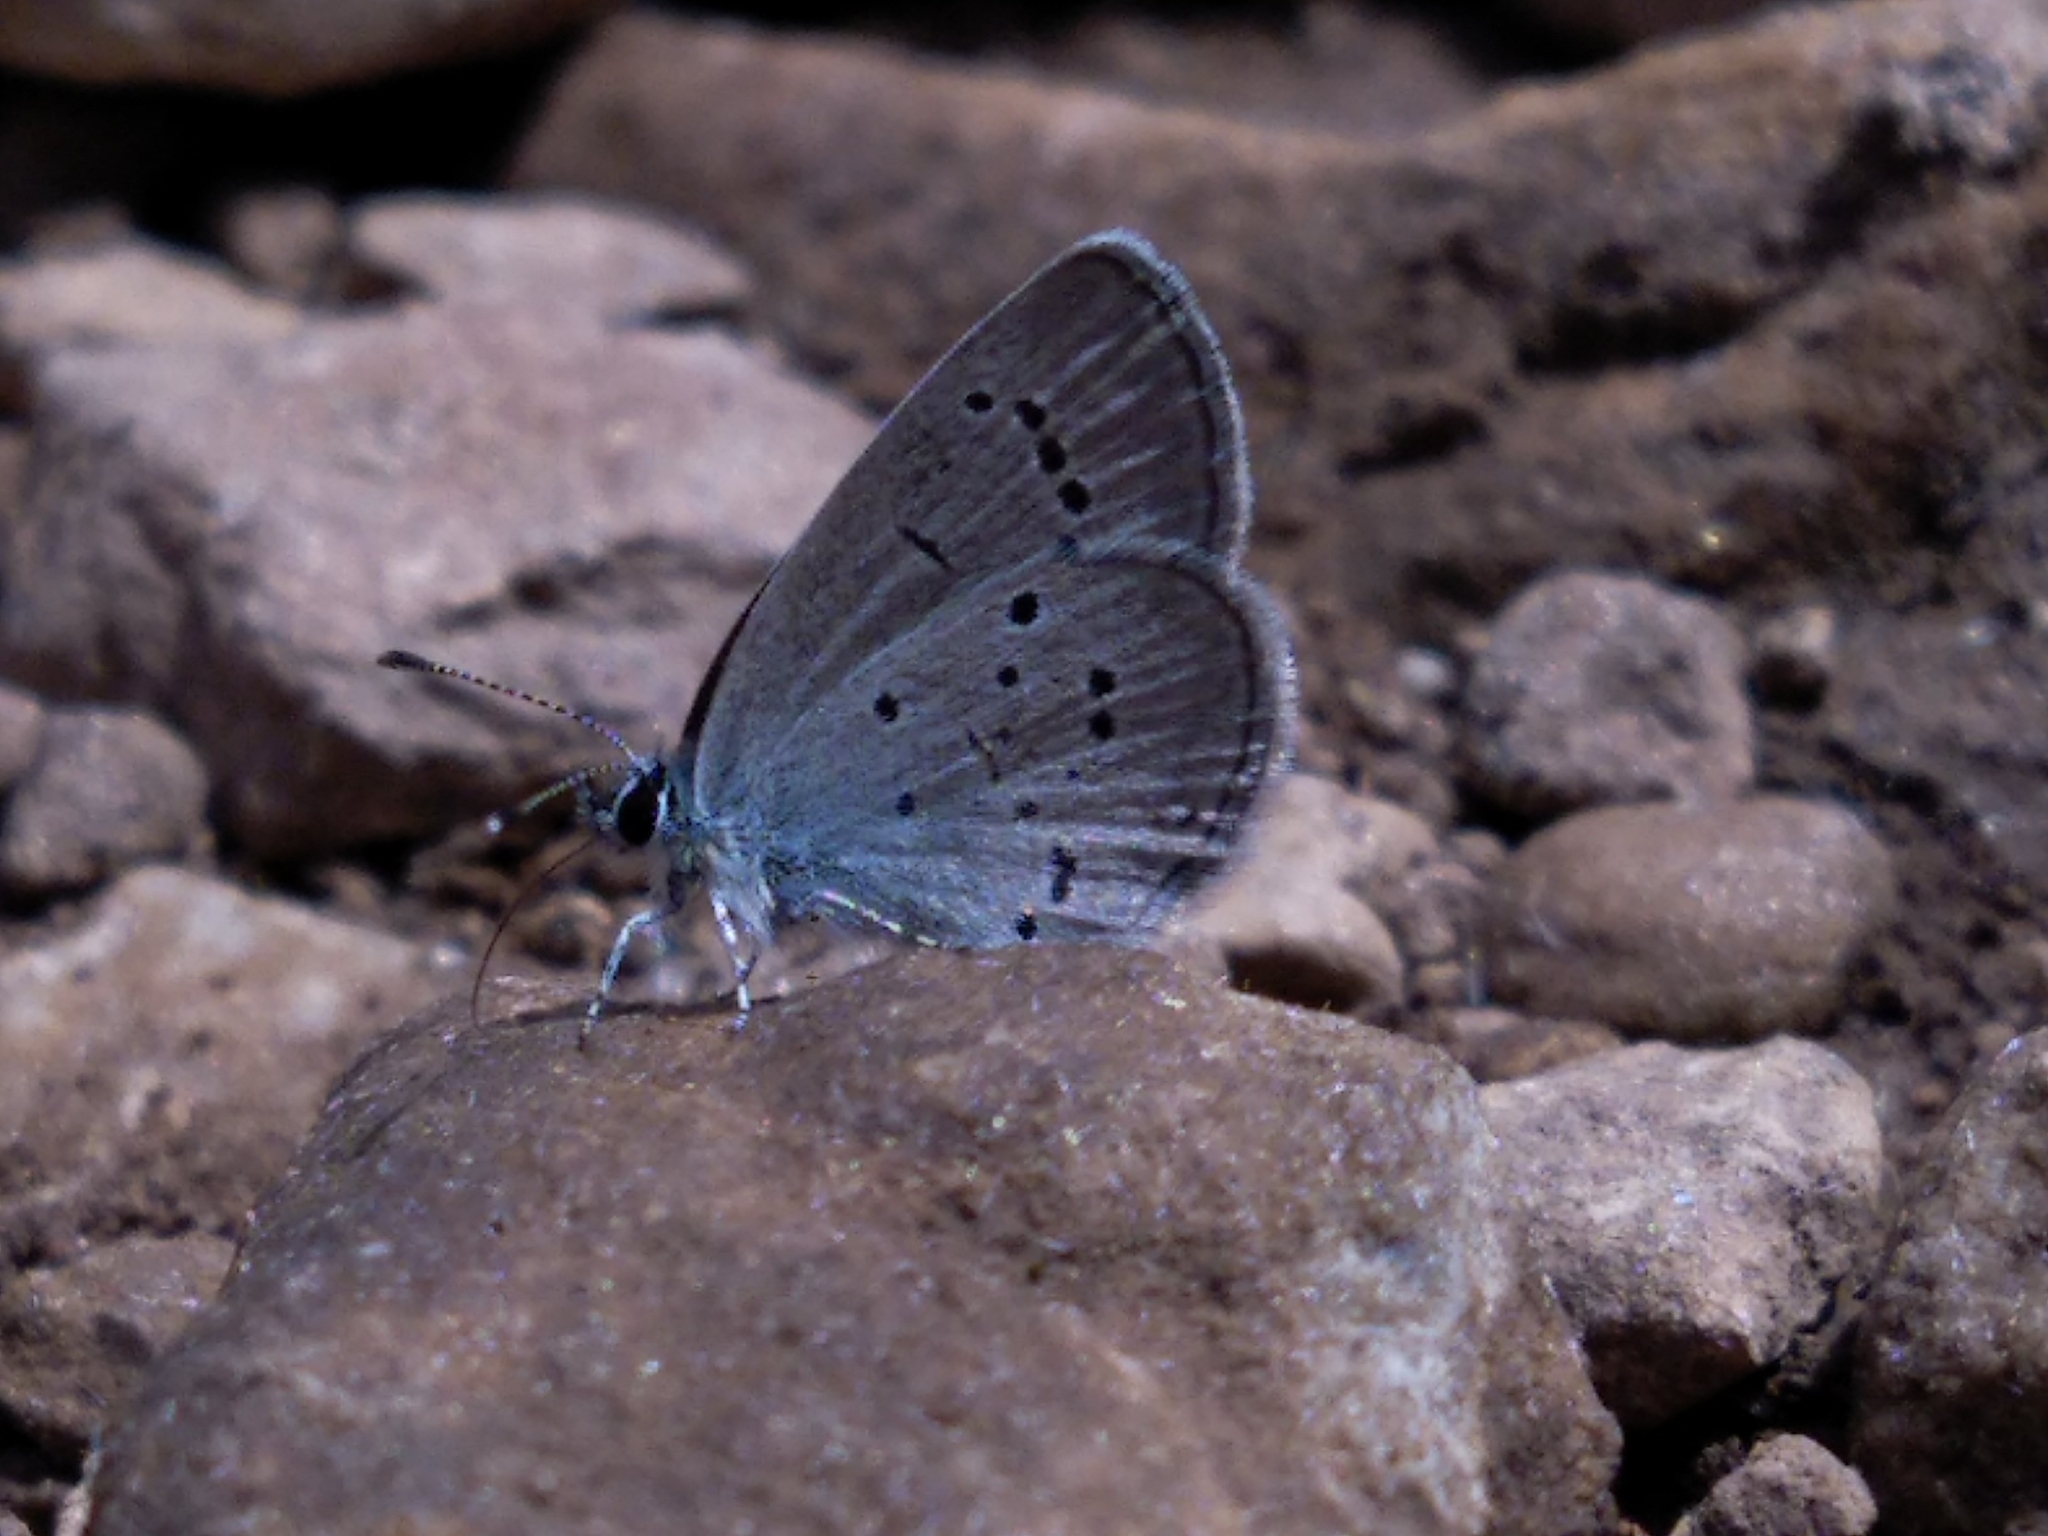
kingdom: Animalia
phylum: Arthropoda
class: Insecta
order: Lepidoptera
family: Lycaenidae
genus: Cupido
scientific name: Cupido minimus
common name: Small blue
